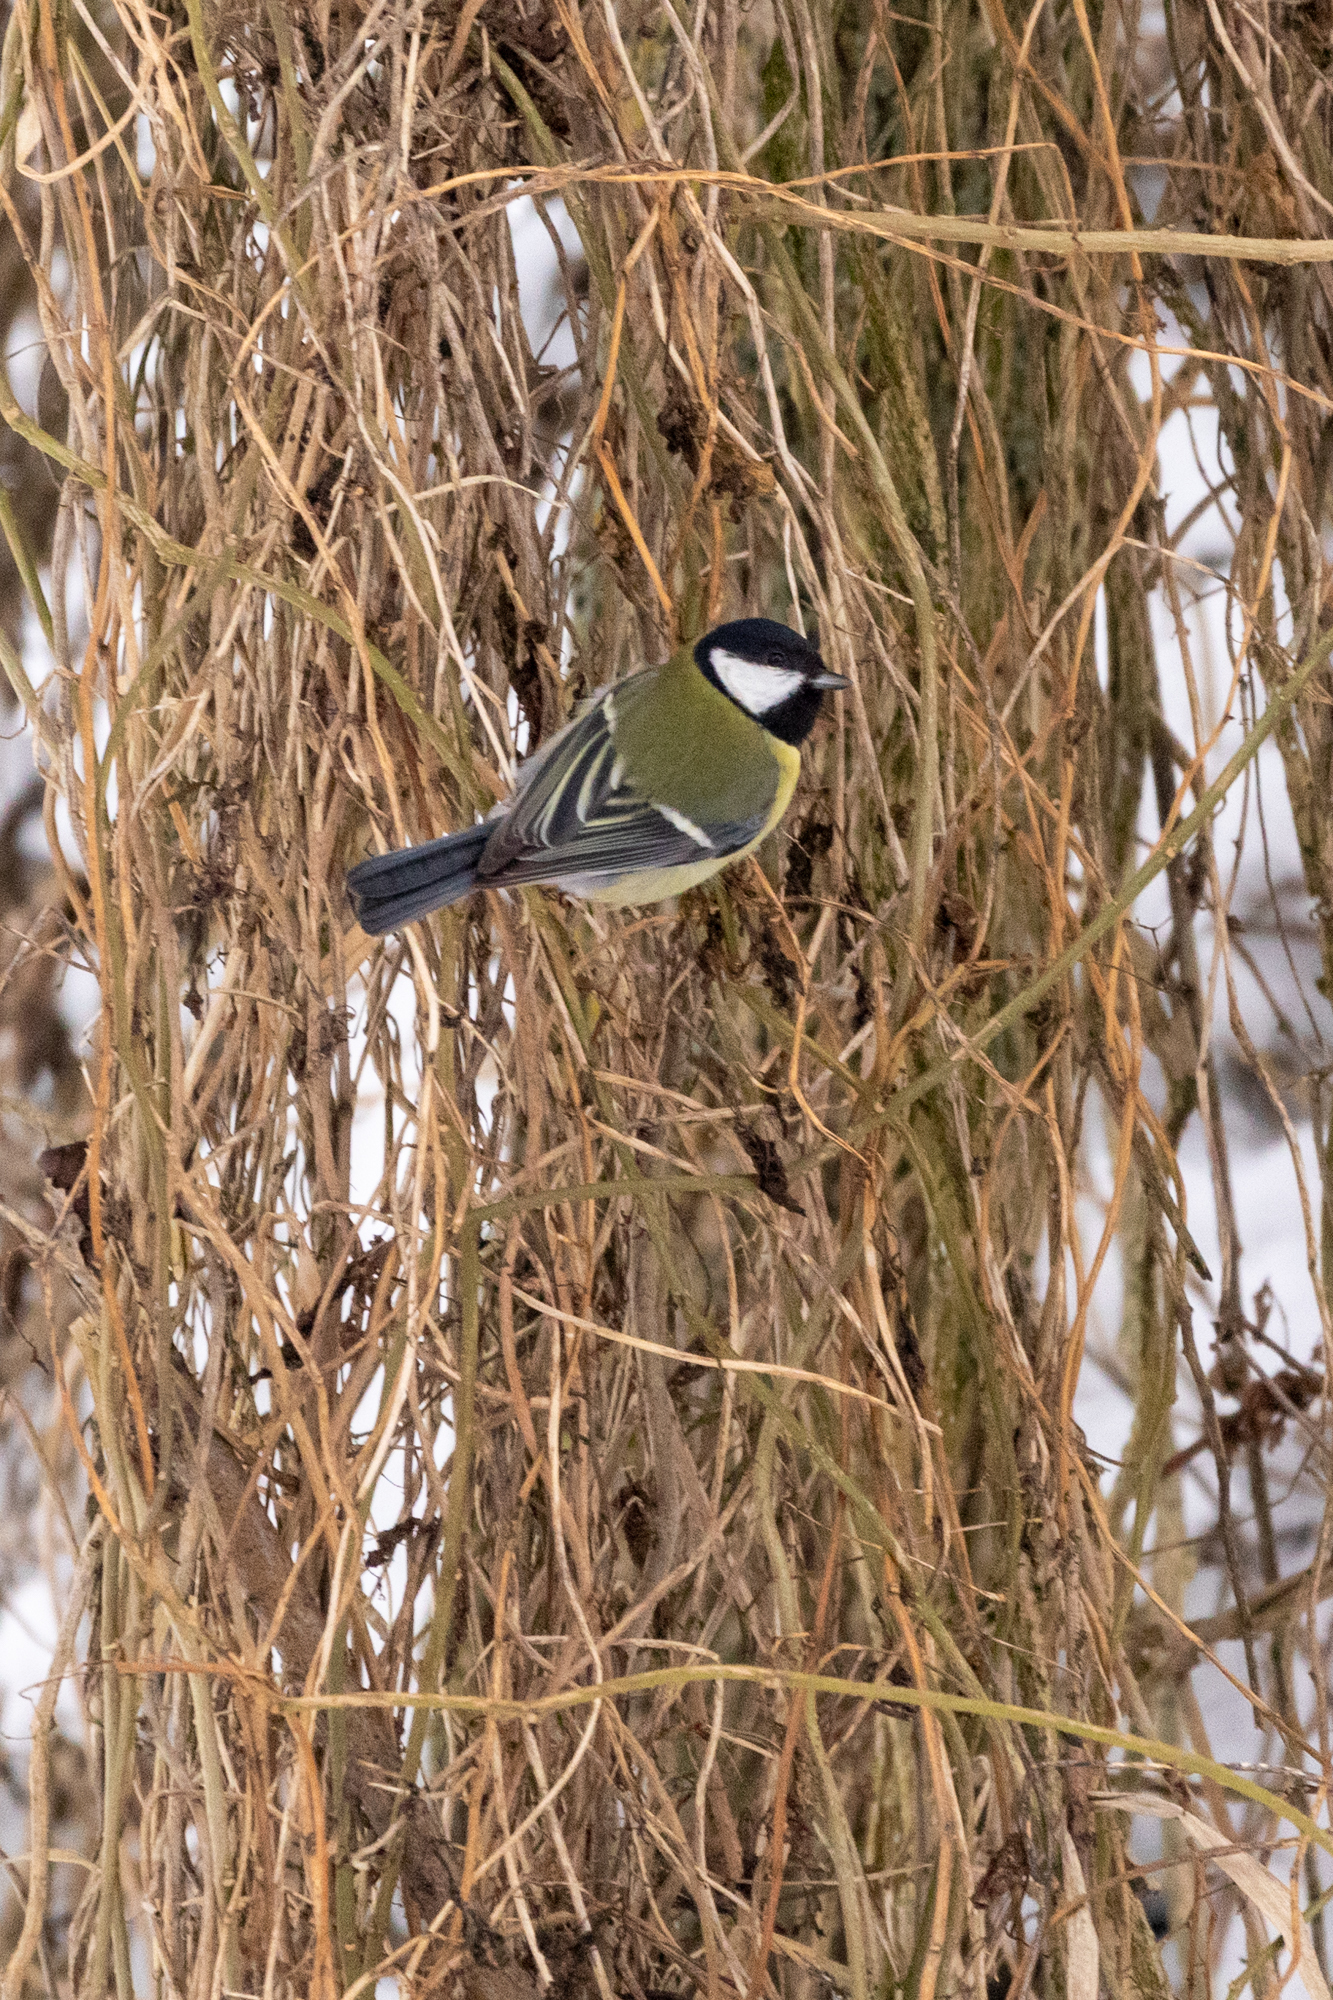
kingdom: Animalia
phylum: Chordata
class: Aves
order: Passeriformes
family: Paridae
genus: Parus
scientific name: Parus major
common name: Great tit
